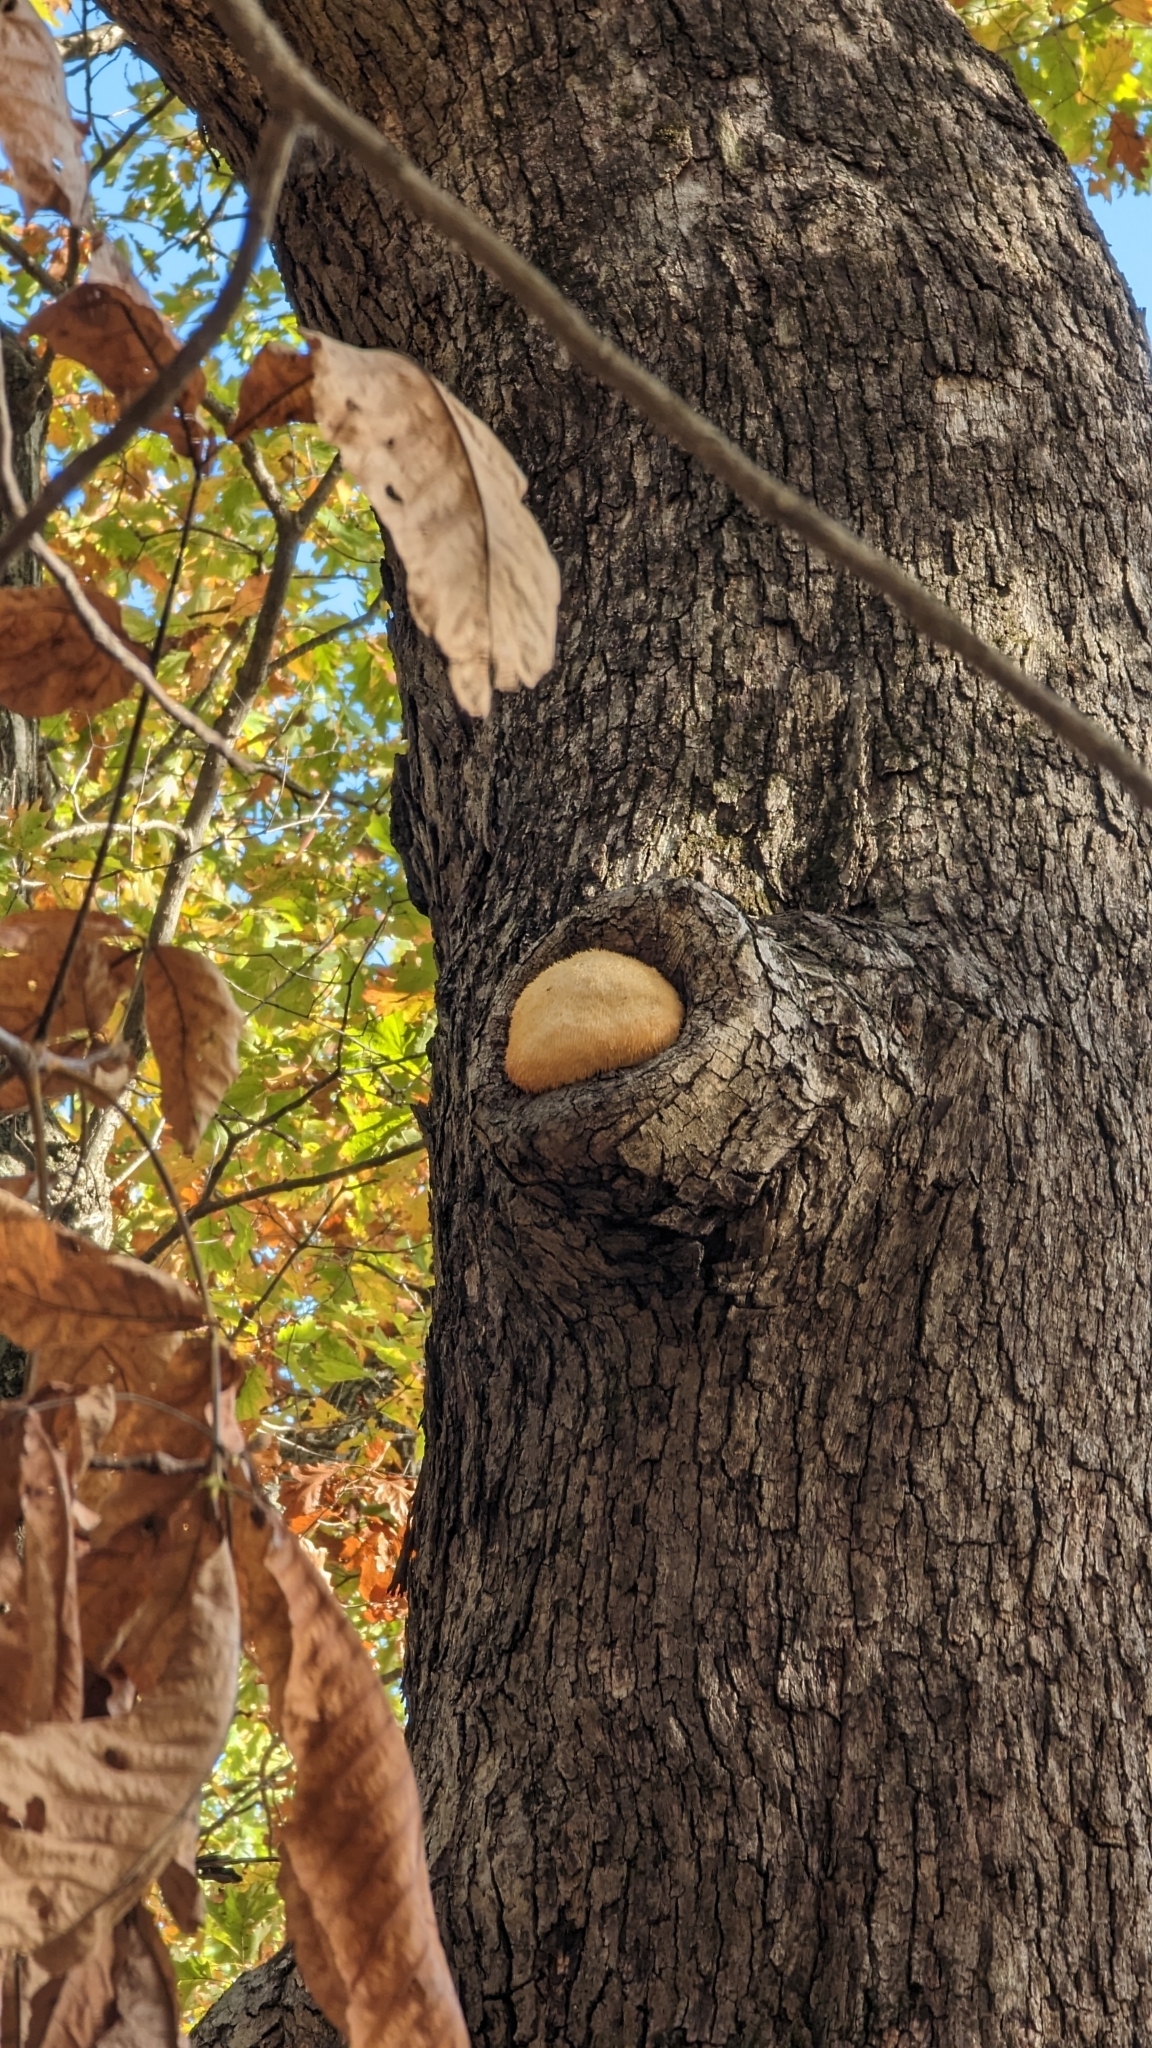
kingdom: Fungi
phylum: Basidiomycota
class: Agaricomycetes
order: Russulales
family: Hericiaceae
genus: Hericium
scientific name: Hericium erinaceus
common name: Bearded tooth
